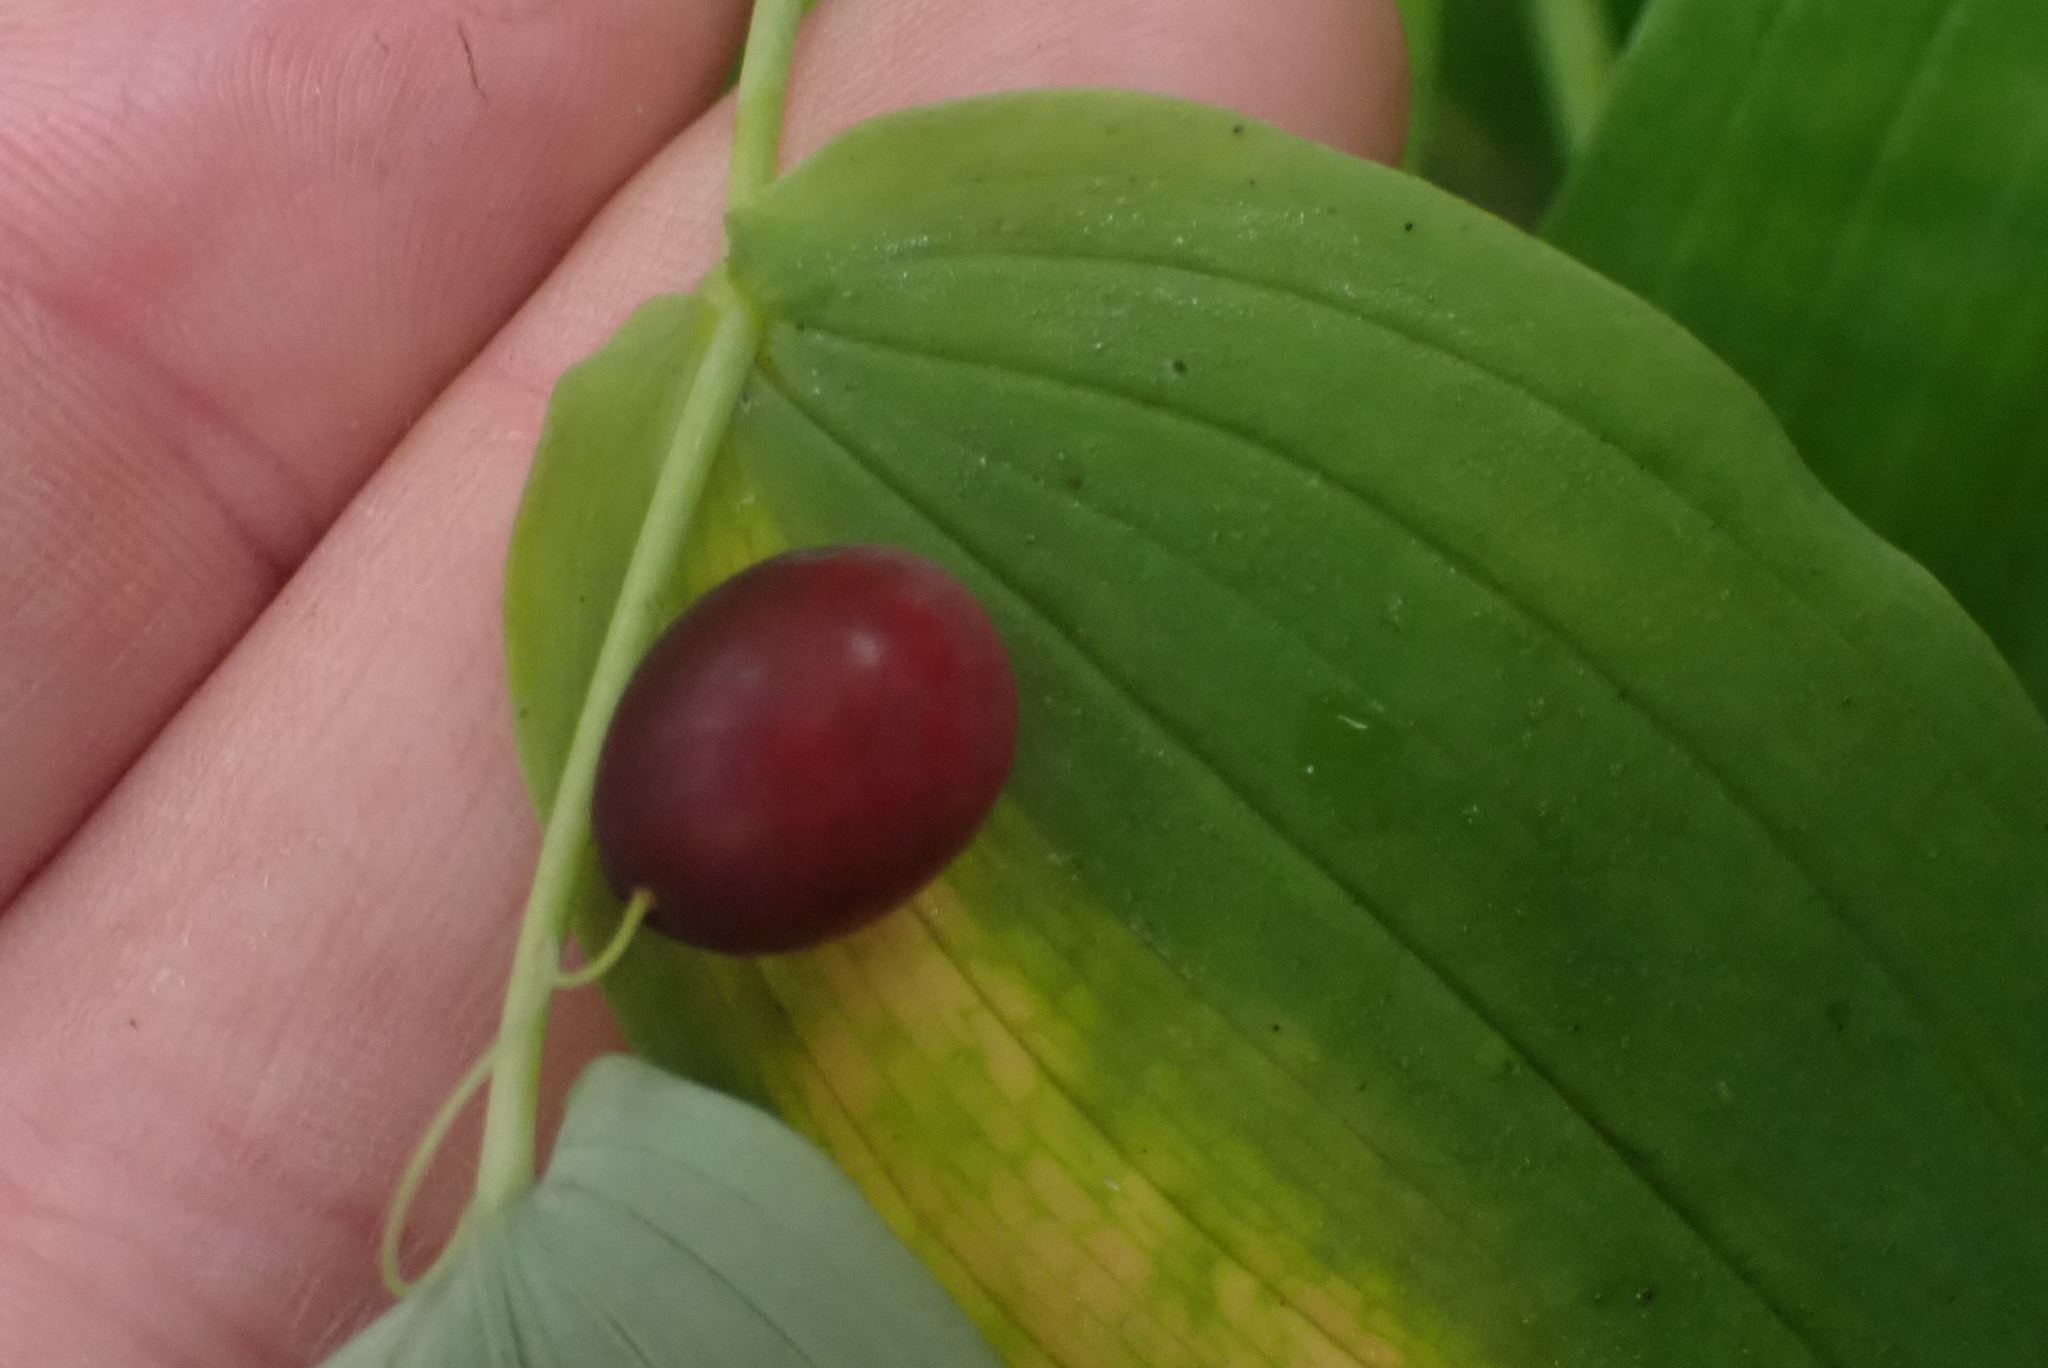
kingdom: Plantae
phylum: Tracheophyta
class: Liliopsida
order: Liliales
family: Liliaceae
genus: Streptopus
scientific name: Streptopus amplexifolius
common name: Clasp twisted stalk
